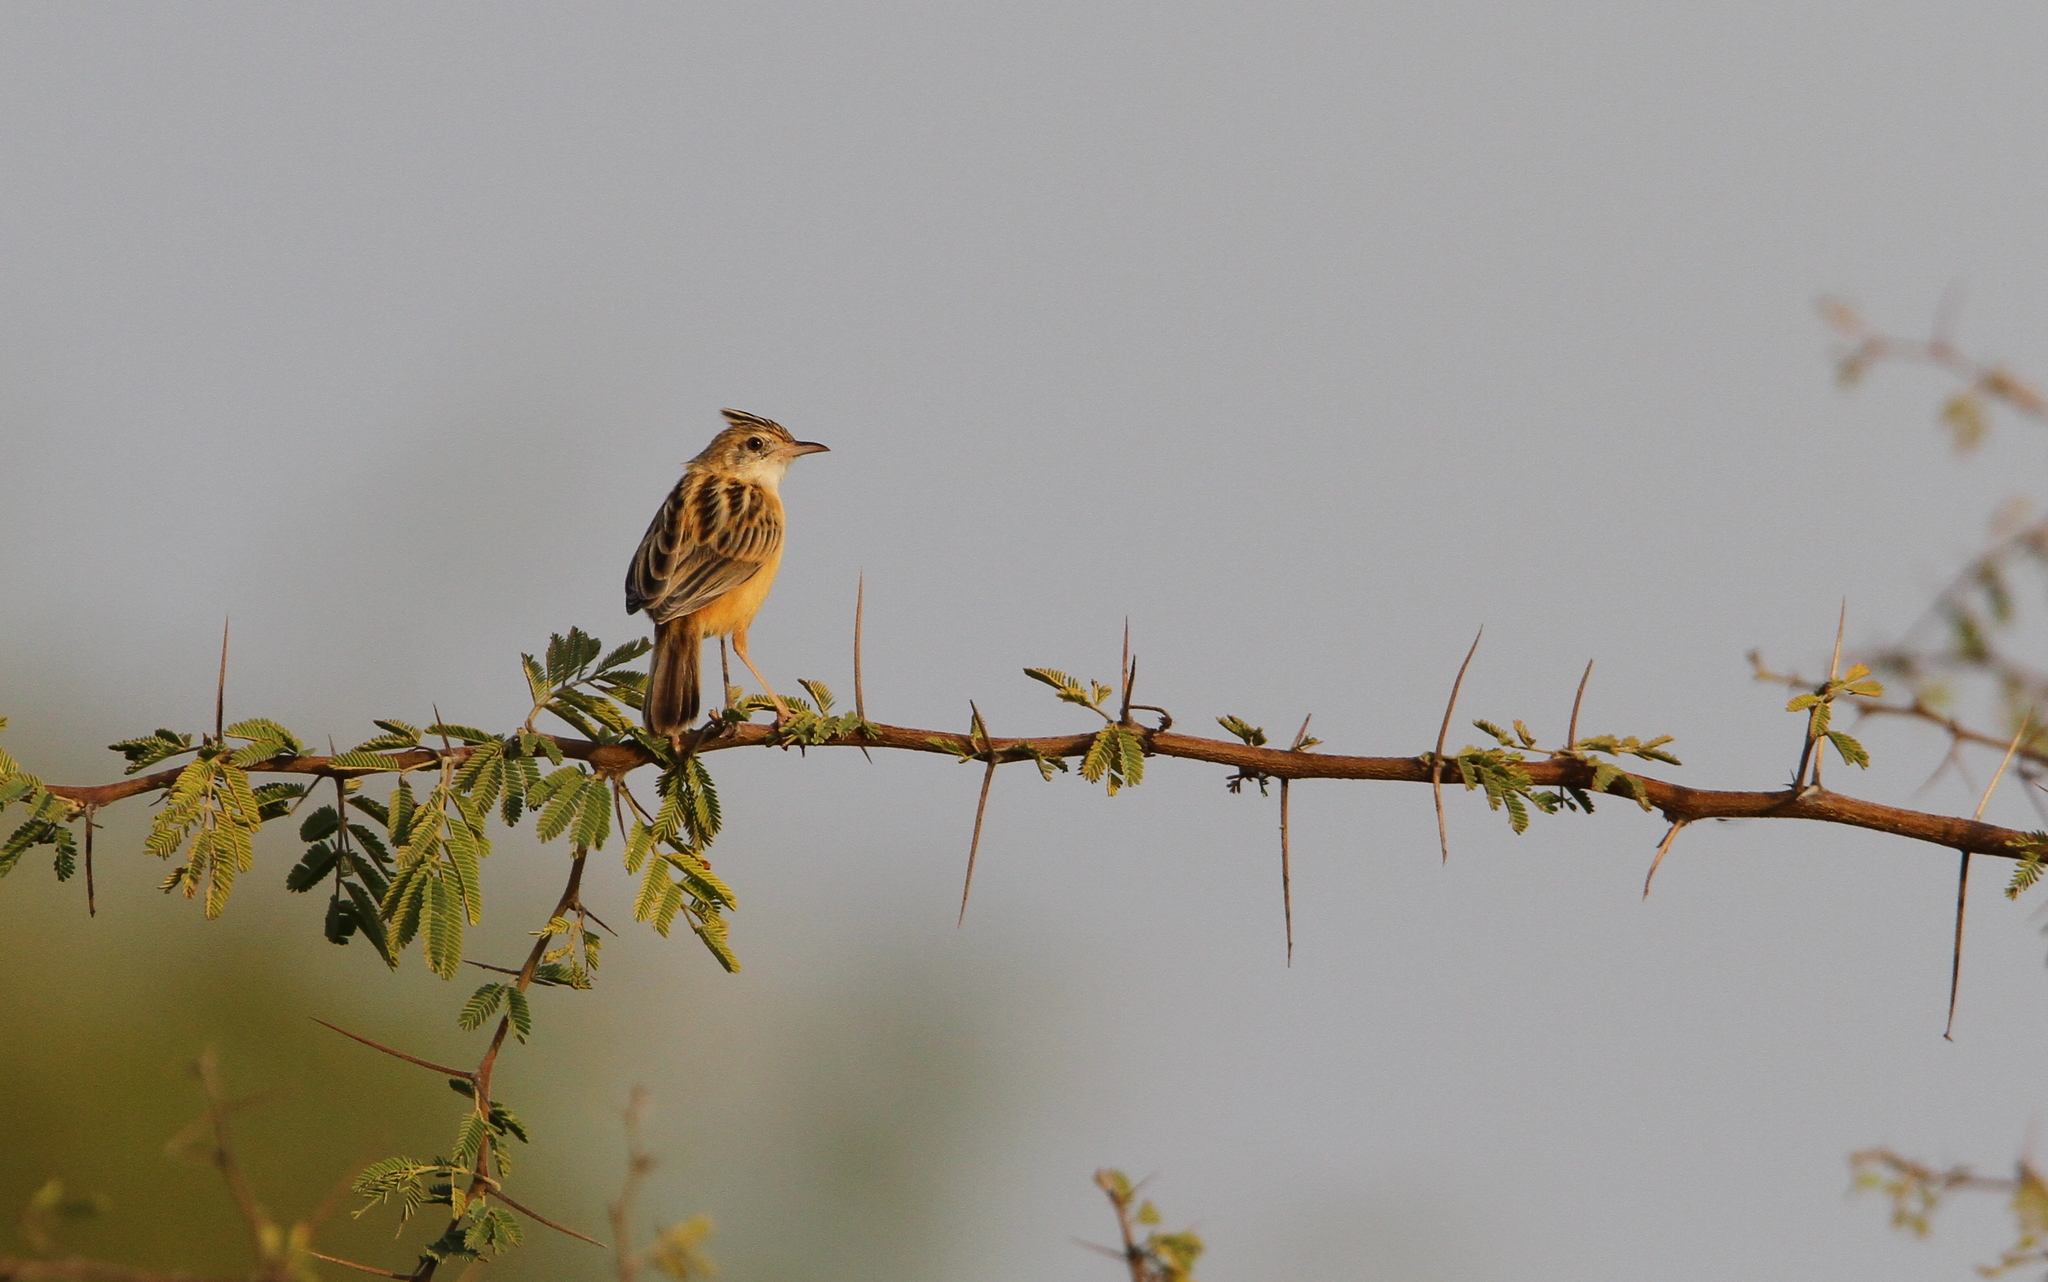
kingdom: Animalia
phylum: Chordata
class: Aves
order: Passeriformes
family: Cisticolidae
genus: Cisticola
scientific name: Cisticola juncidis
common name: Zitting cisticola
